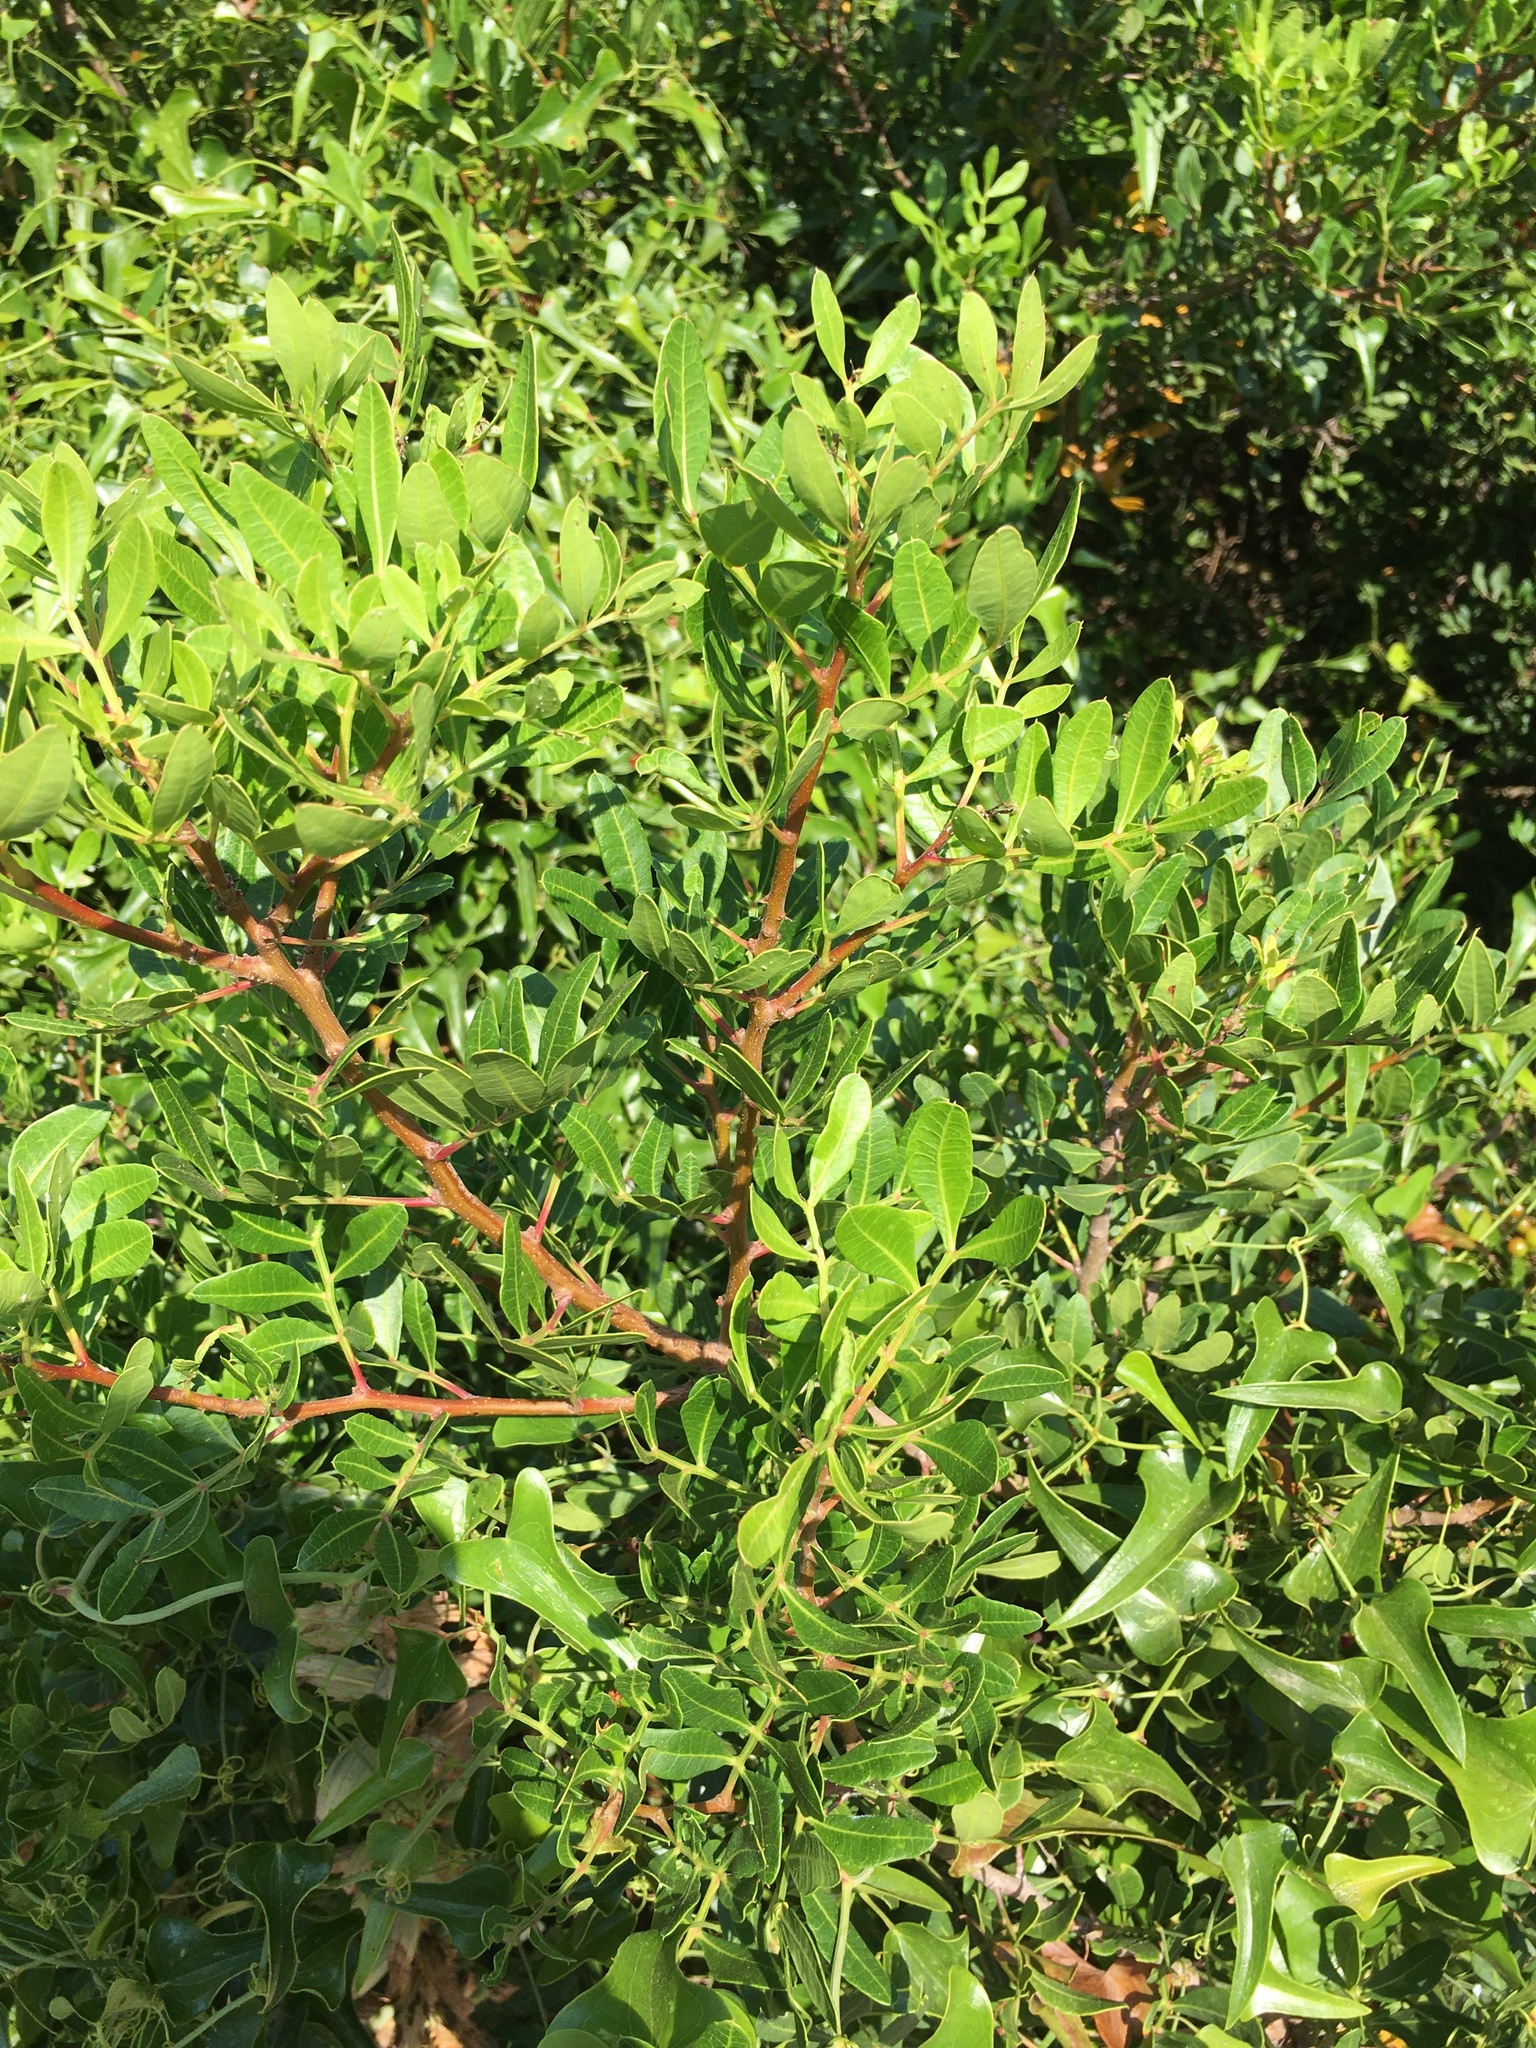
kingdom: Plantae
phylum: Tracheophyta
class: Magnoliopsida
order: Sapindales
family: Anacardiaceae
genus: Pistacia
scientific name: Pistacia lentiscus
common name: Lentisk
